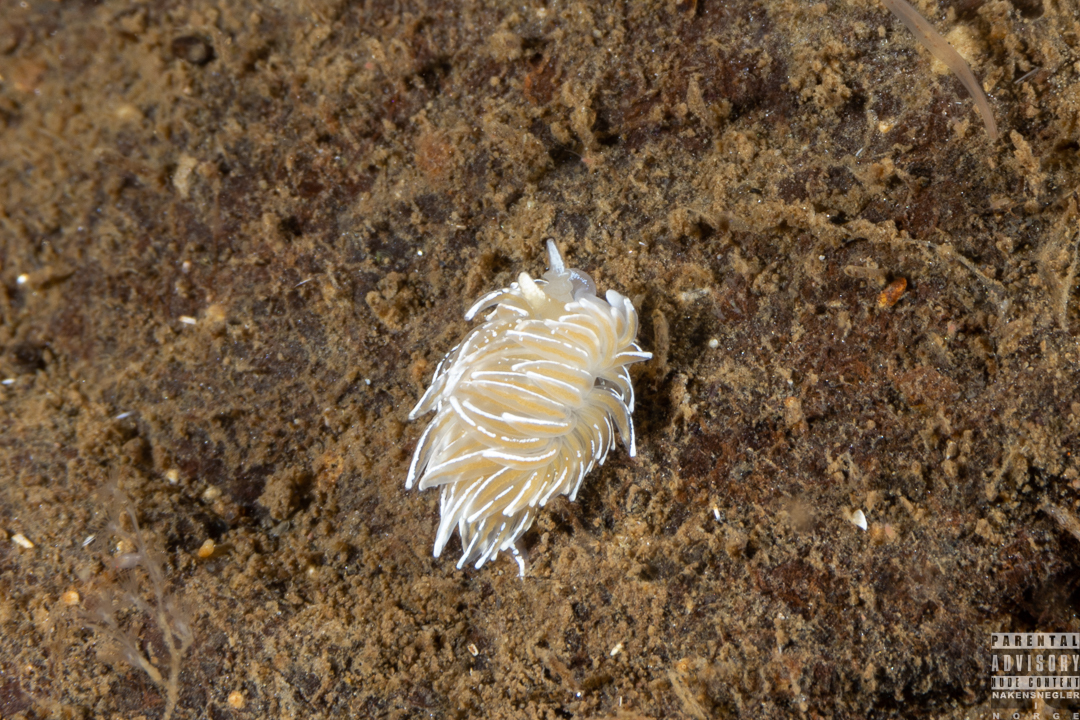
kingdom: Animalia
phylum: Mollusca
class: Gastropoda
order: Nudibranchia
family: Facelinidae
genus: Favorinus
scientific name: Favorinus blianus
